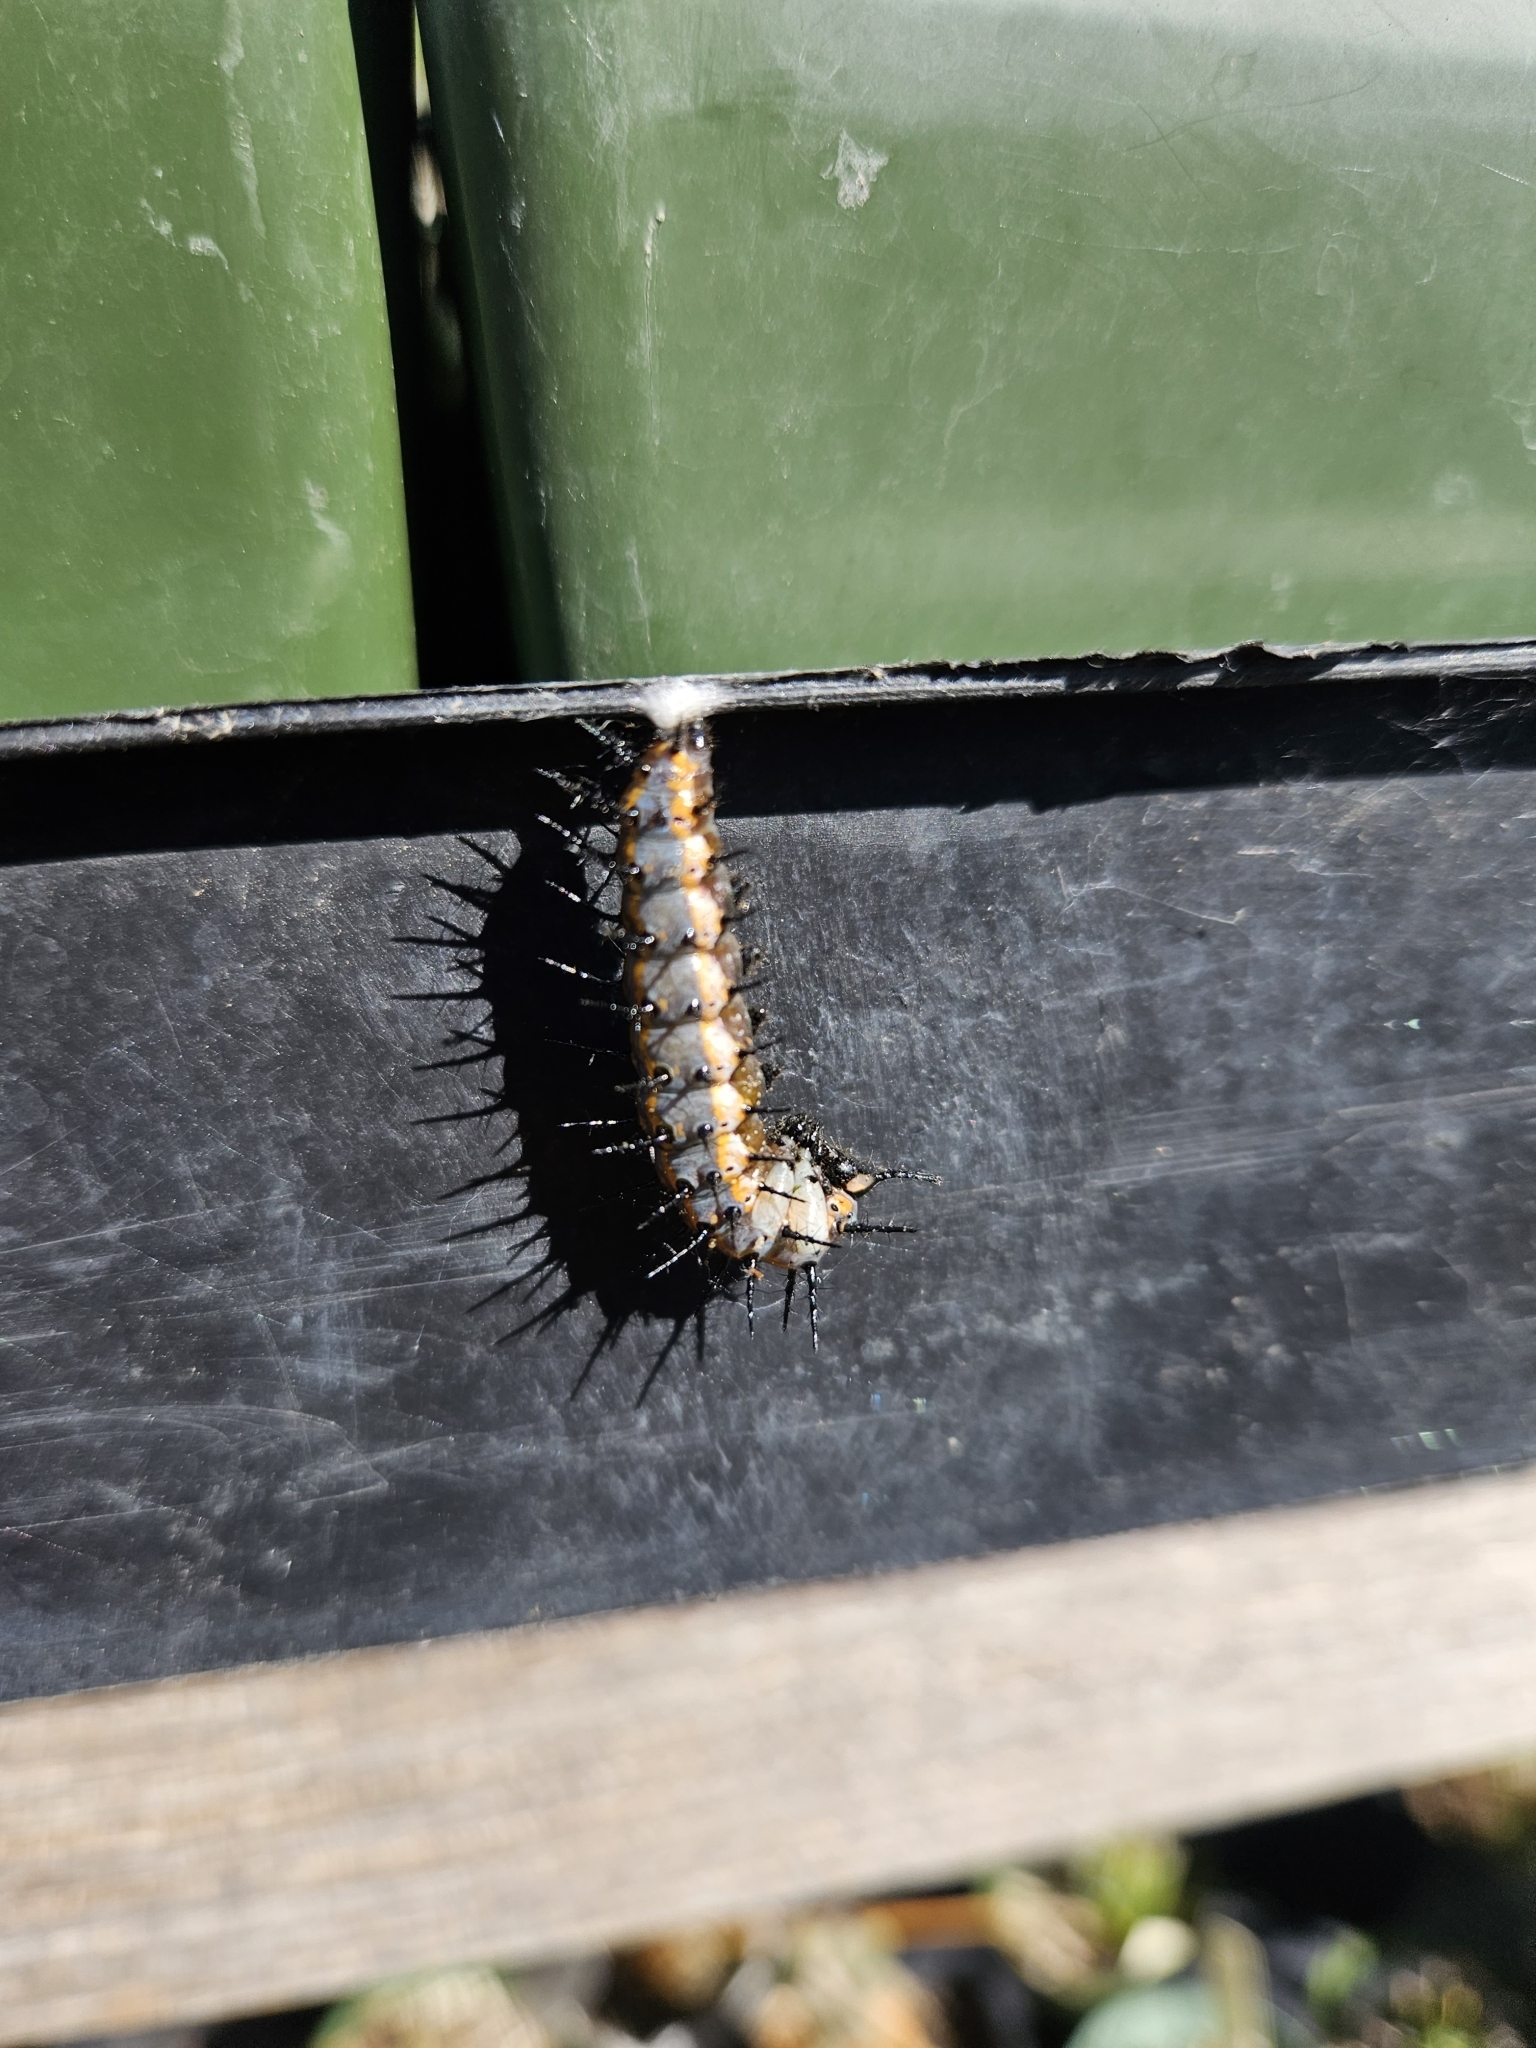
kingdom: Animalia
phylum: Arthropoda
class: Insecta
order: Lepidoptera
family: Nymphalidae
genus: Dione
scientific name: Dione vanillae
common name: Gulf fritillary
